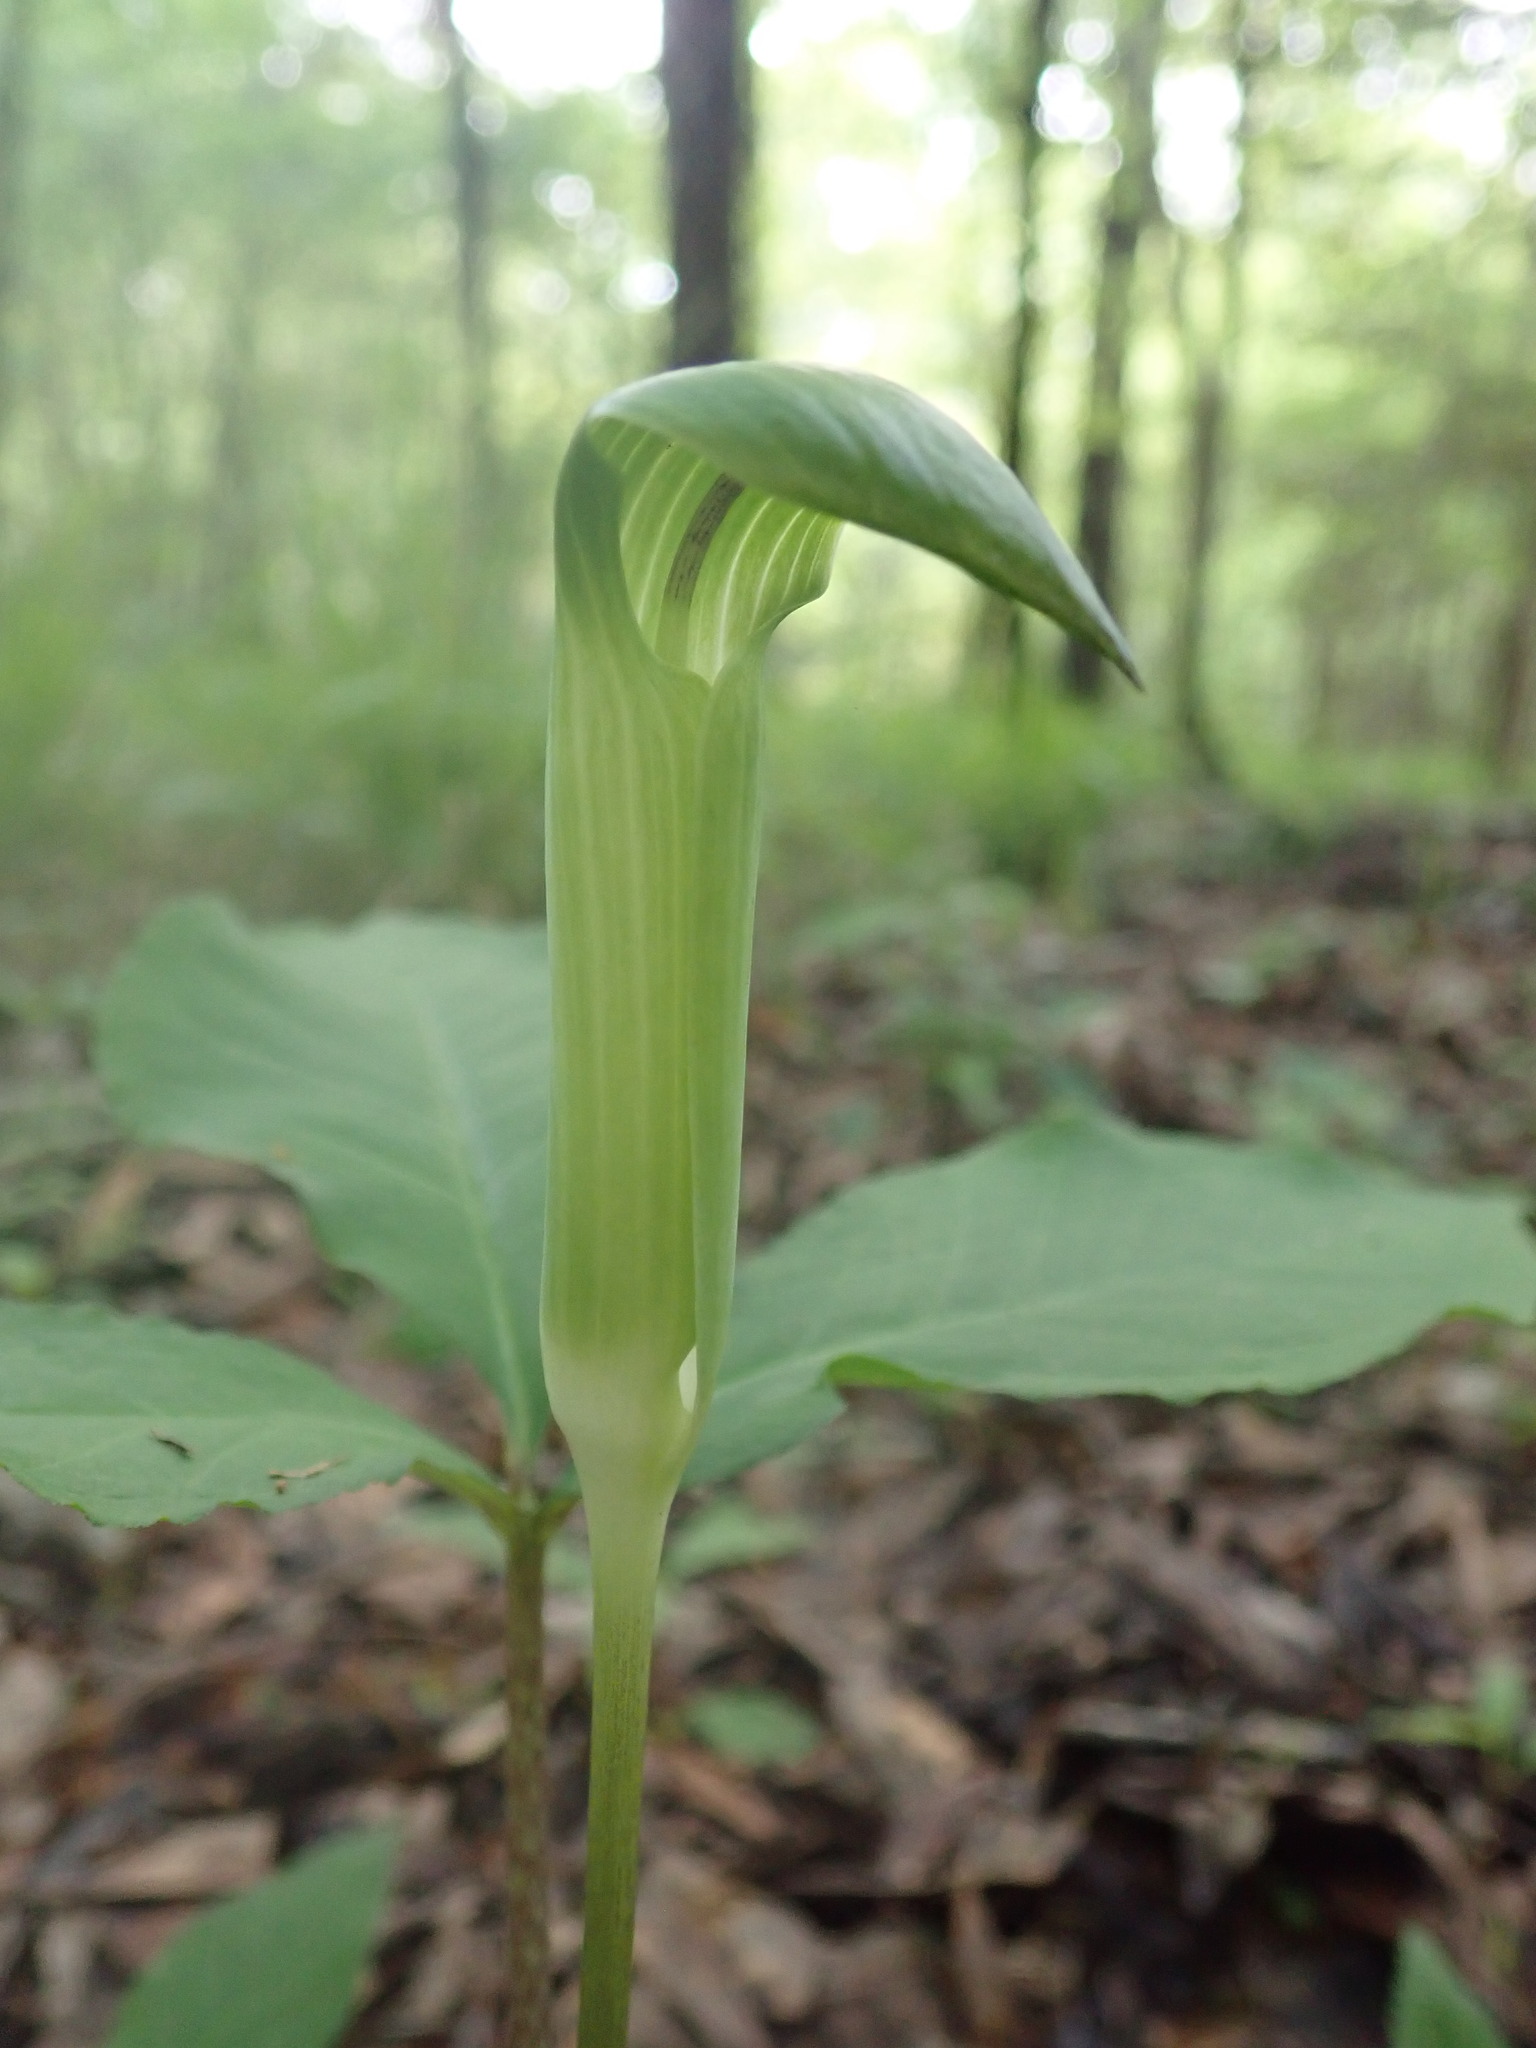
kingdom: Plantae
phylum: Tracheophyta
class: Liliopsida
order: Alismatales
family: Araceae
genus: Arisaema
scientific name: Arisaema quinatum
